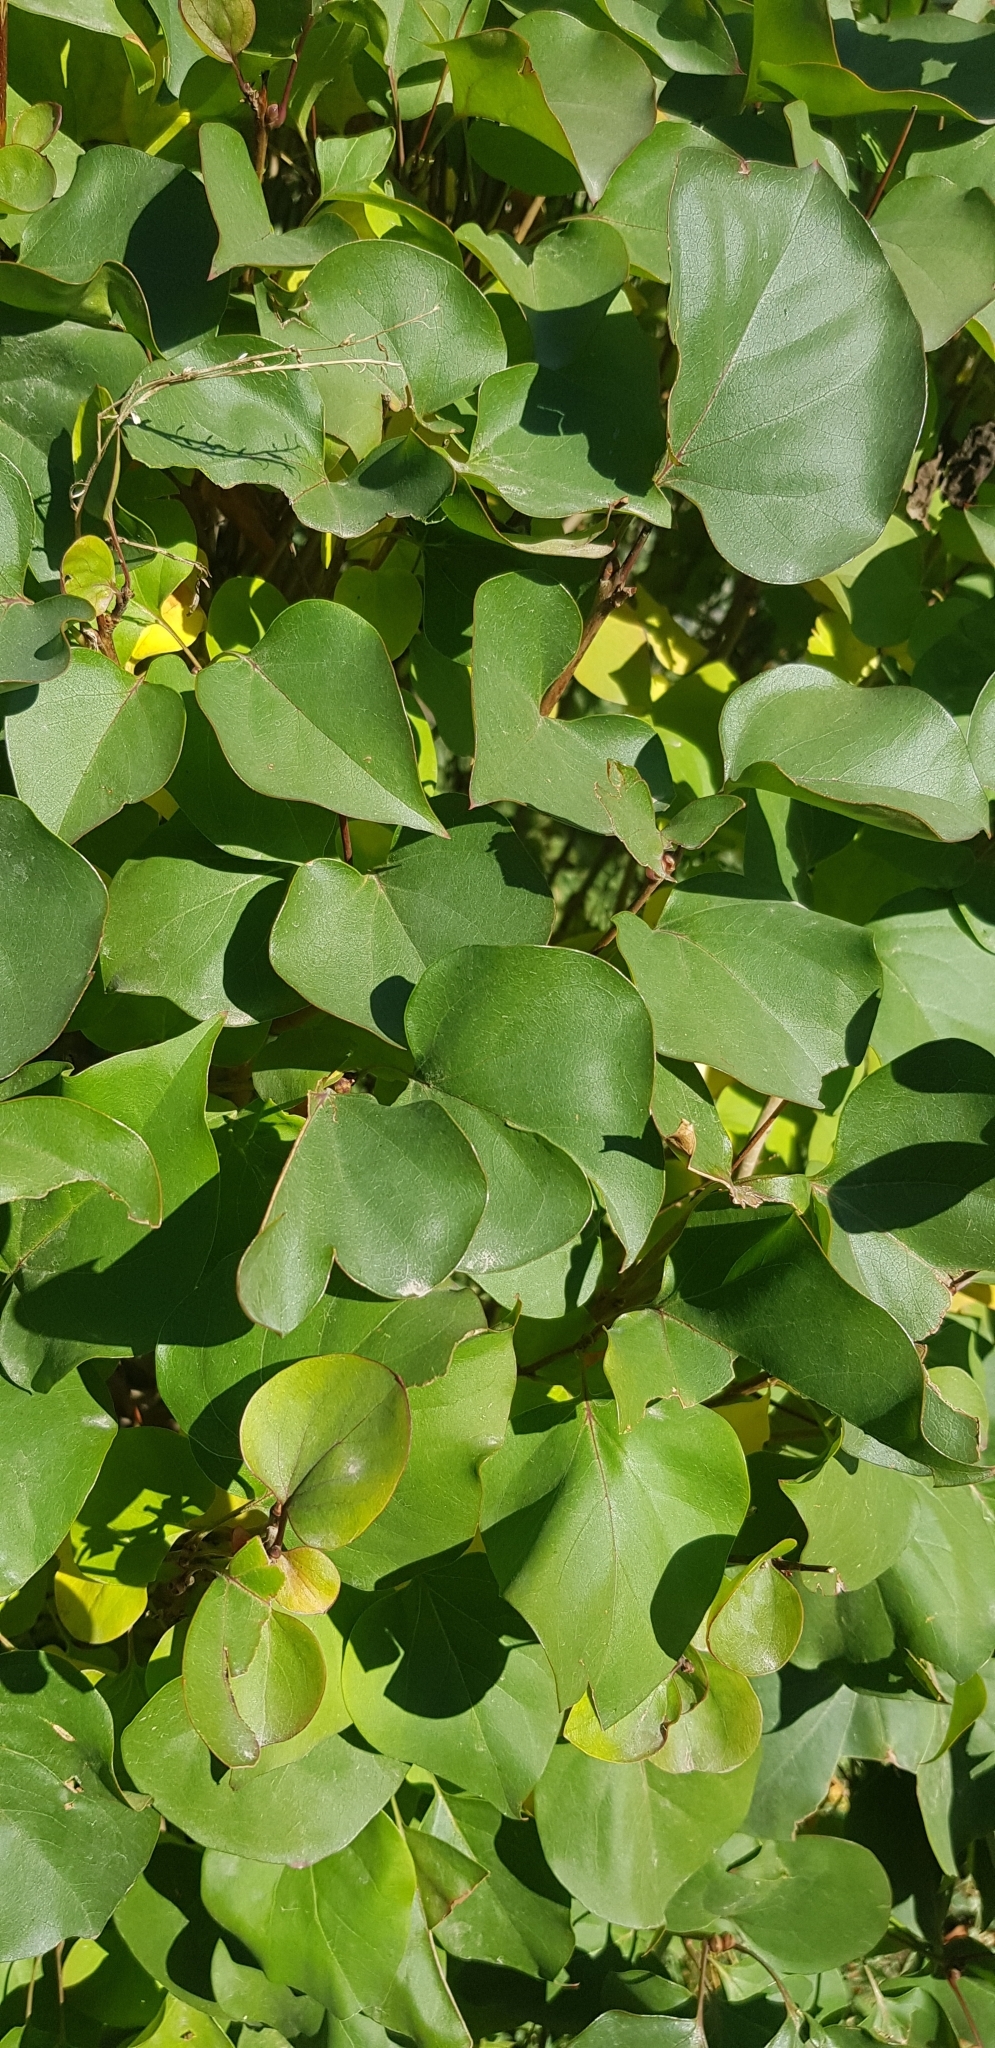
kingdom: Plantae
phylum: Tracheophyta
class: Magnoliopsida
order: Rosales
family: Rosaceae
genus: Prunus
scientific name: Prunus armeniaca
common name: Apricot
